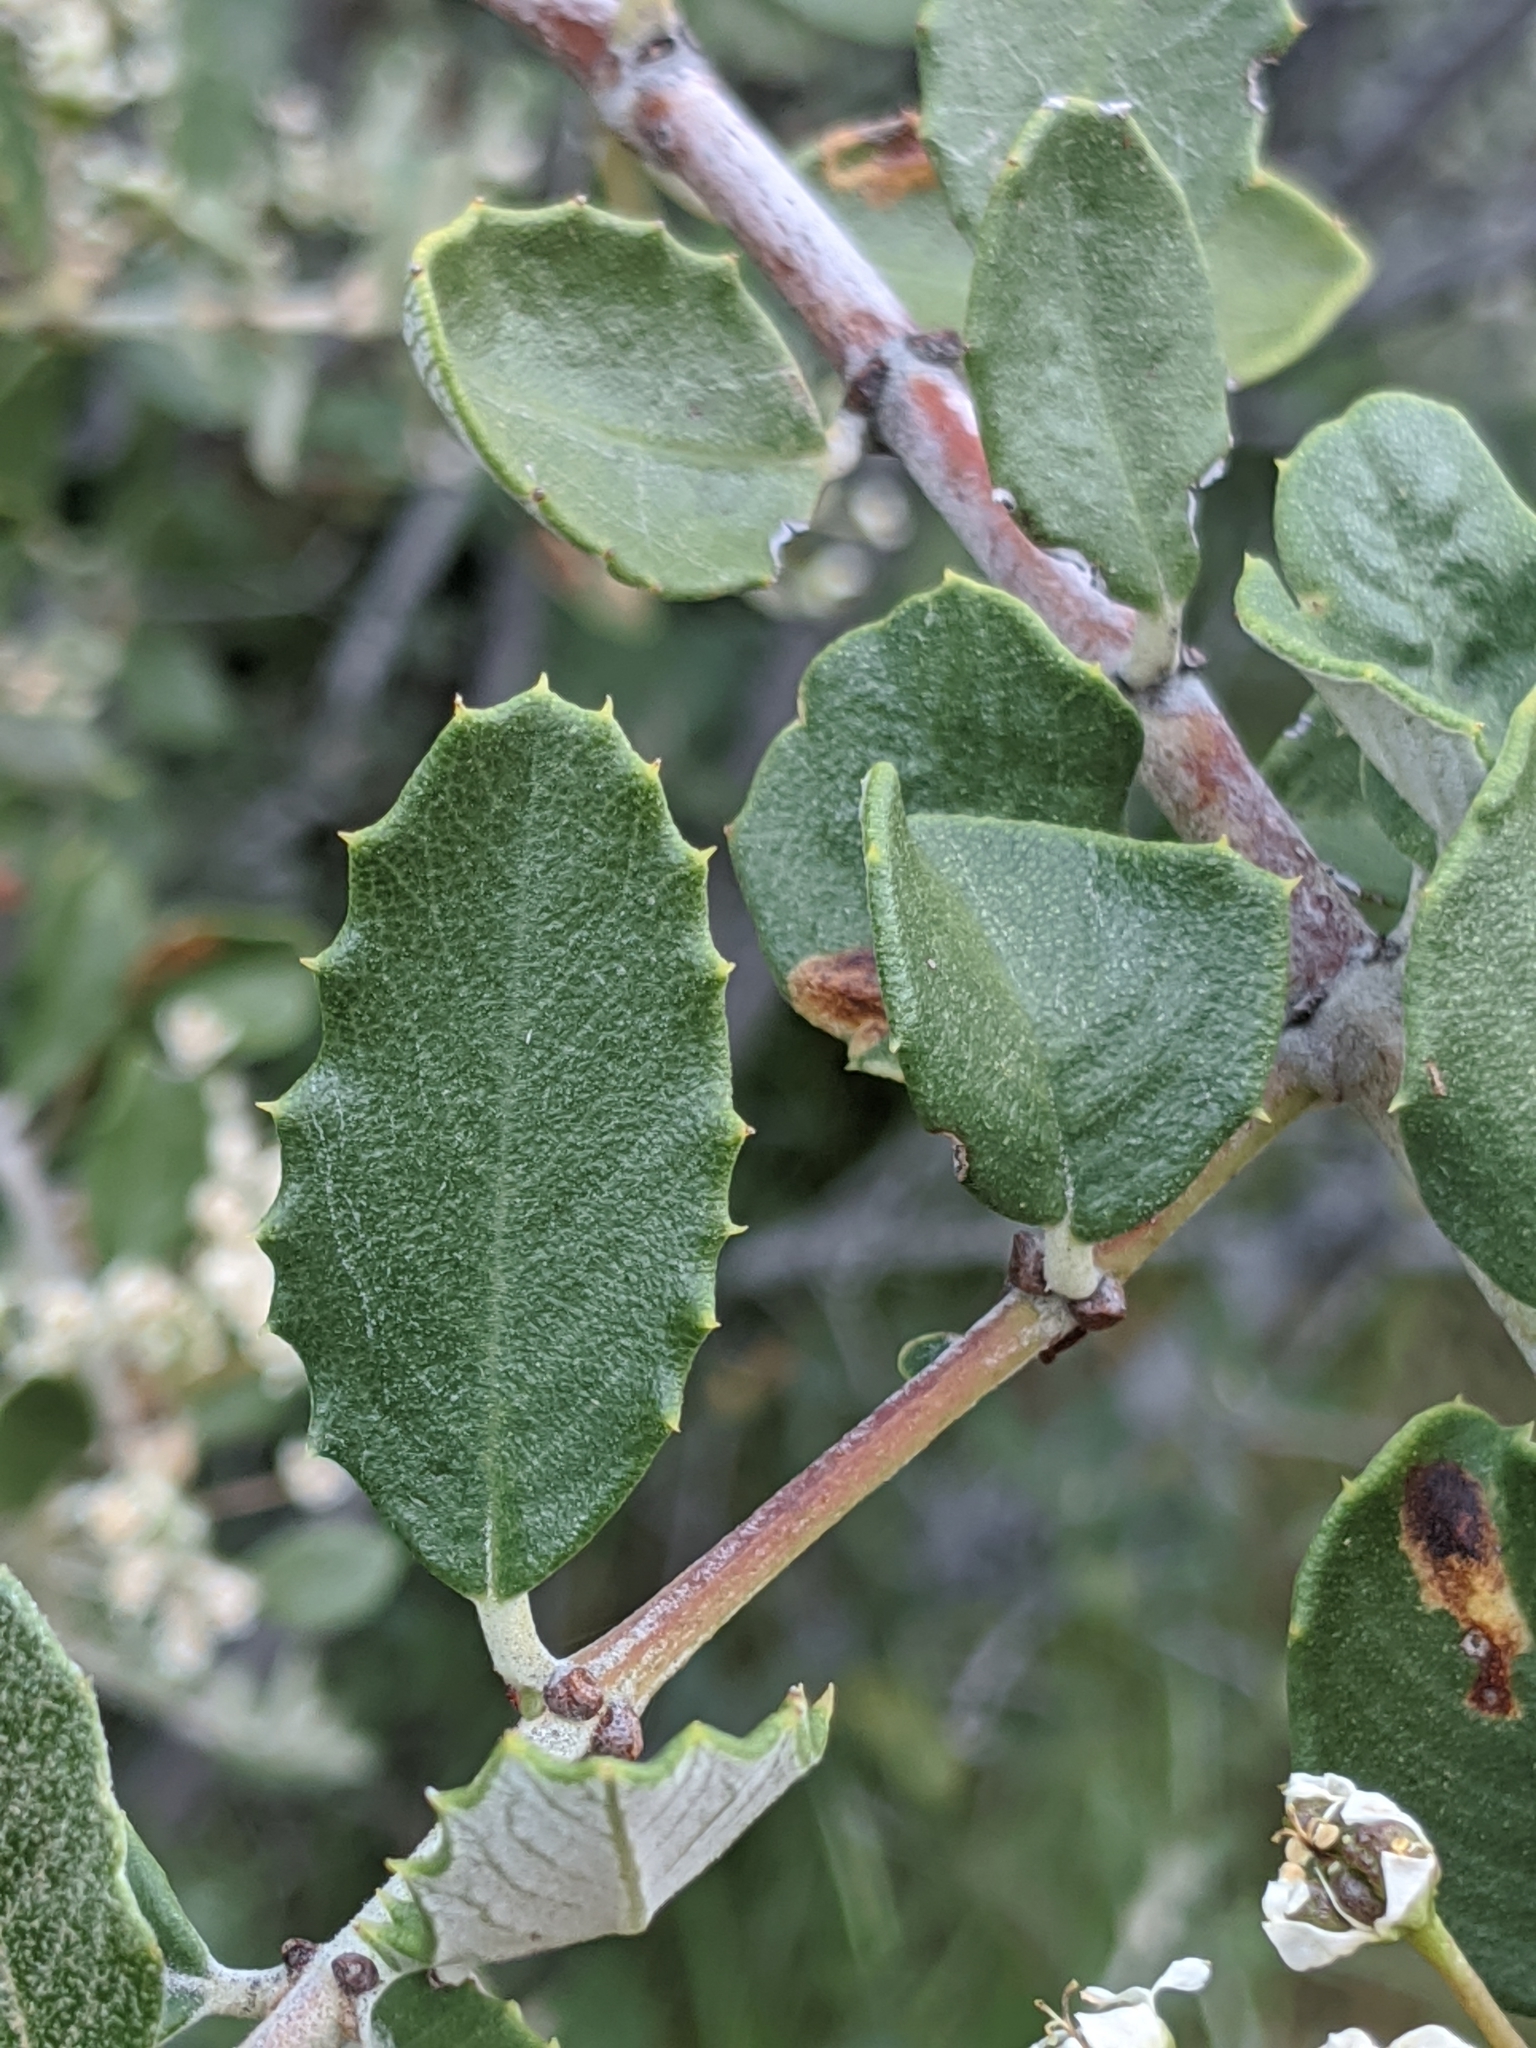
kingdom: Plantae
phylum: Tracheophyta
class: Magnoliopsida
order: Rosales
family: Rhamnaceae
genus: Ceanothus
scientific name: Ceanothus crassifolius
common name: Hoaryleaf ceanothus
